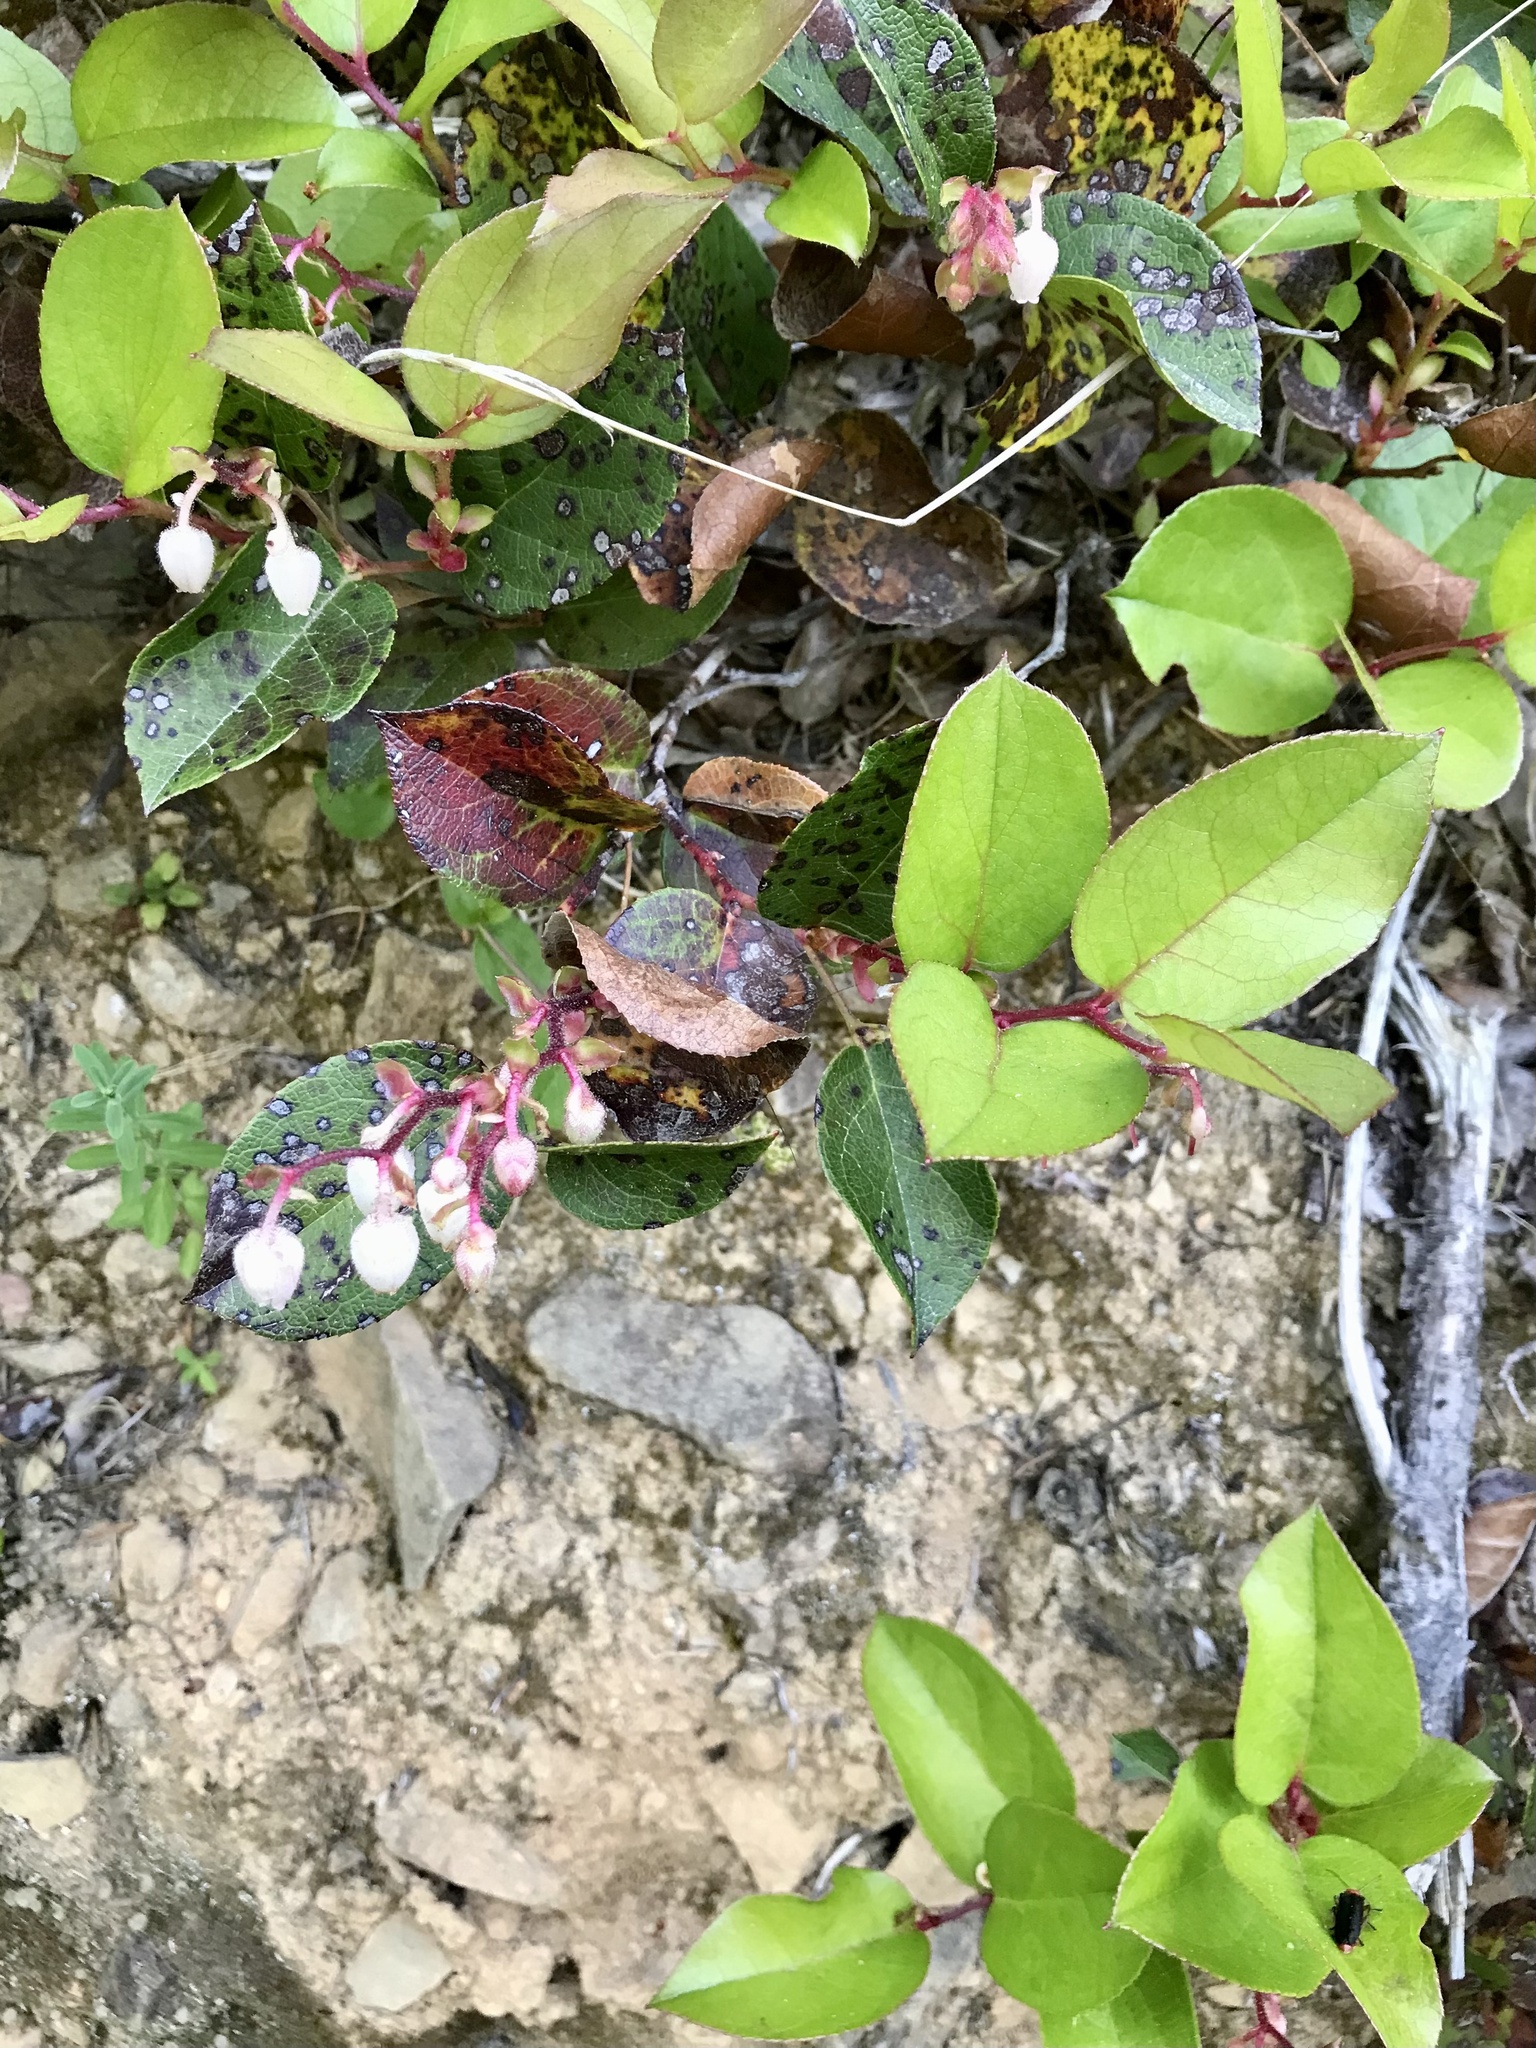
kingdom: Plantae
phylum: Tracheophyta
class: Magnoliopsida
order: Ericales
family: Ericaceae
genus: Gaultheria
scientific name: Gaultheria shallon
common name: Shallon
